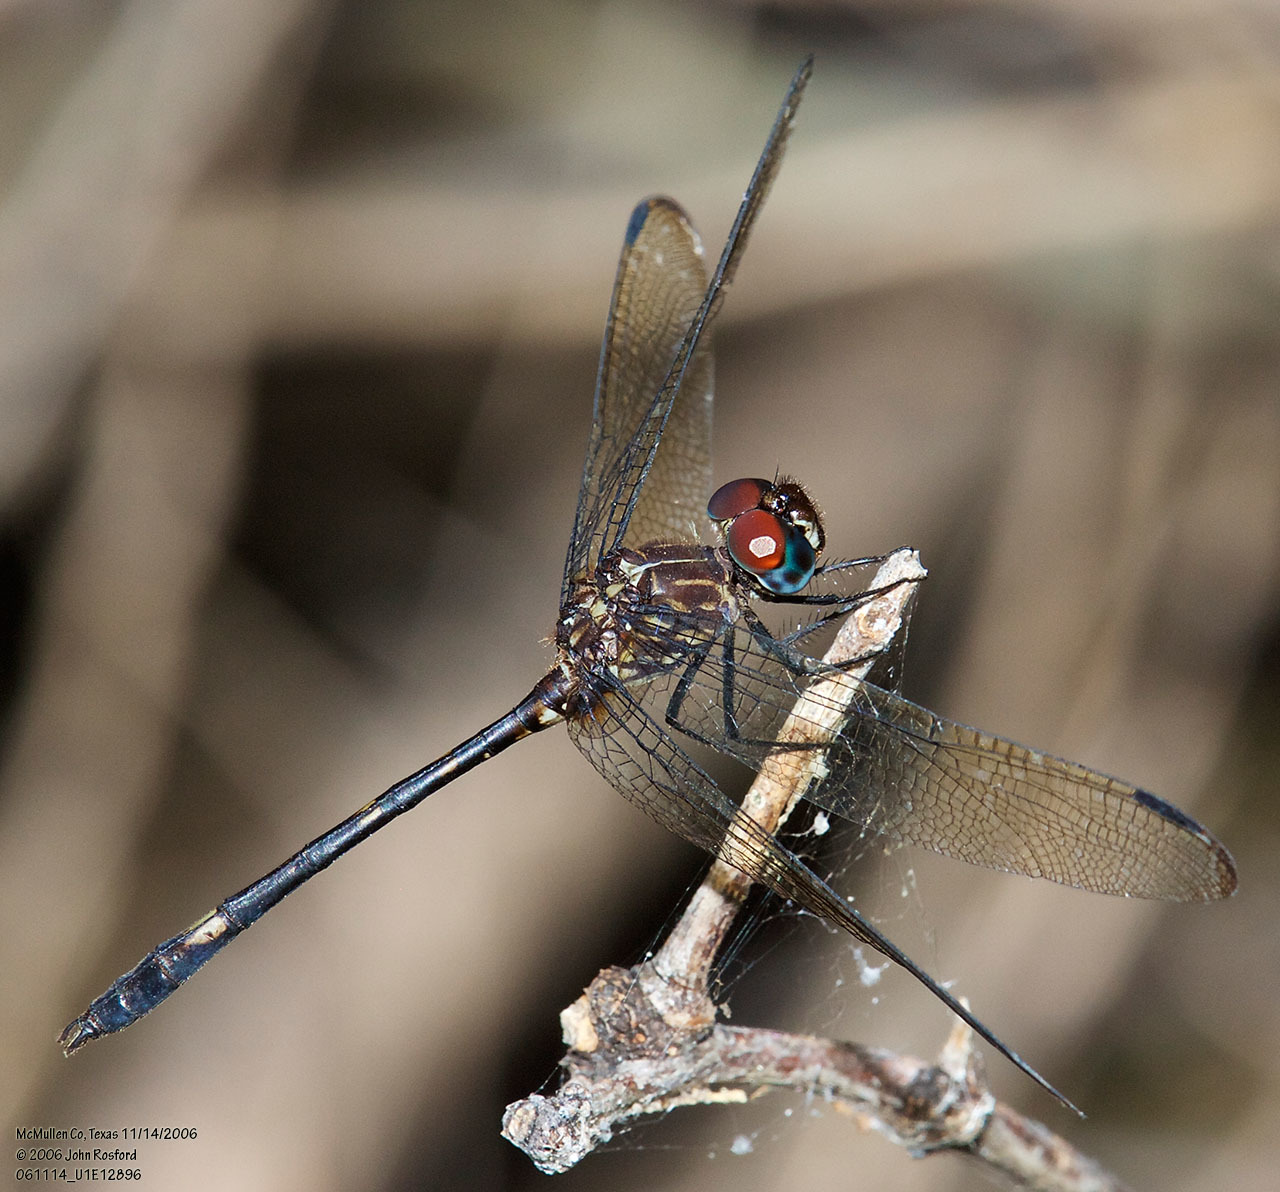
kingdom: Animalia
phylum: Arthropoda
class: Insecta
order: Odonata
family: Libellulidae
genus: Dythemis
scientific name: Dythemis velox
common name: Swift setwing
